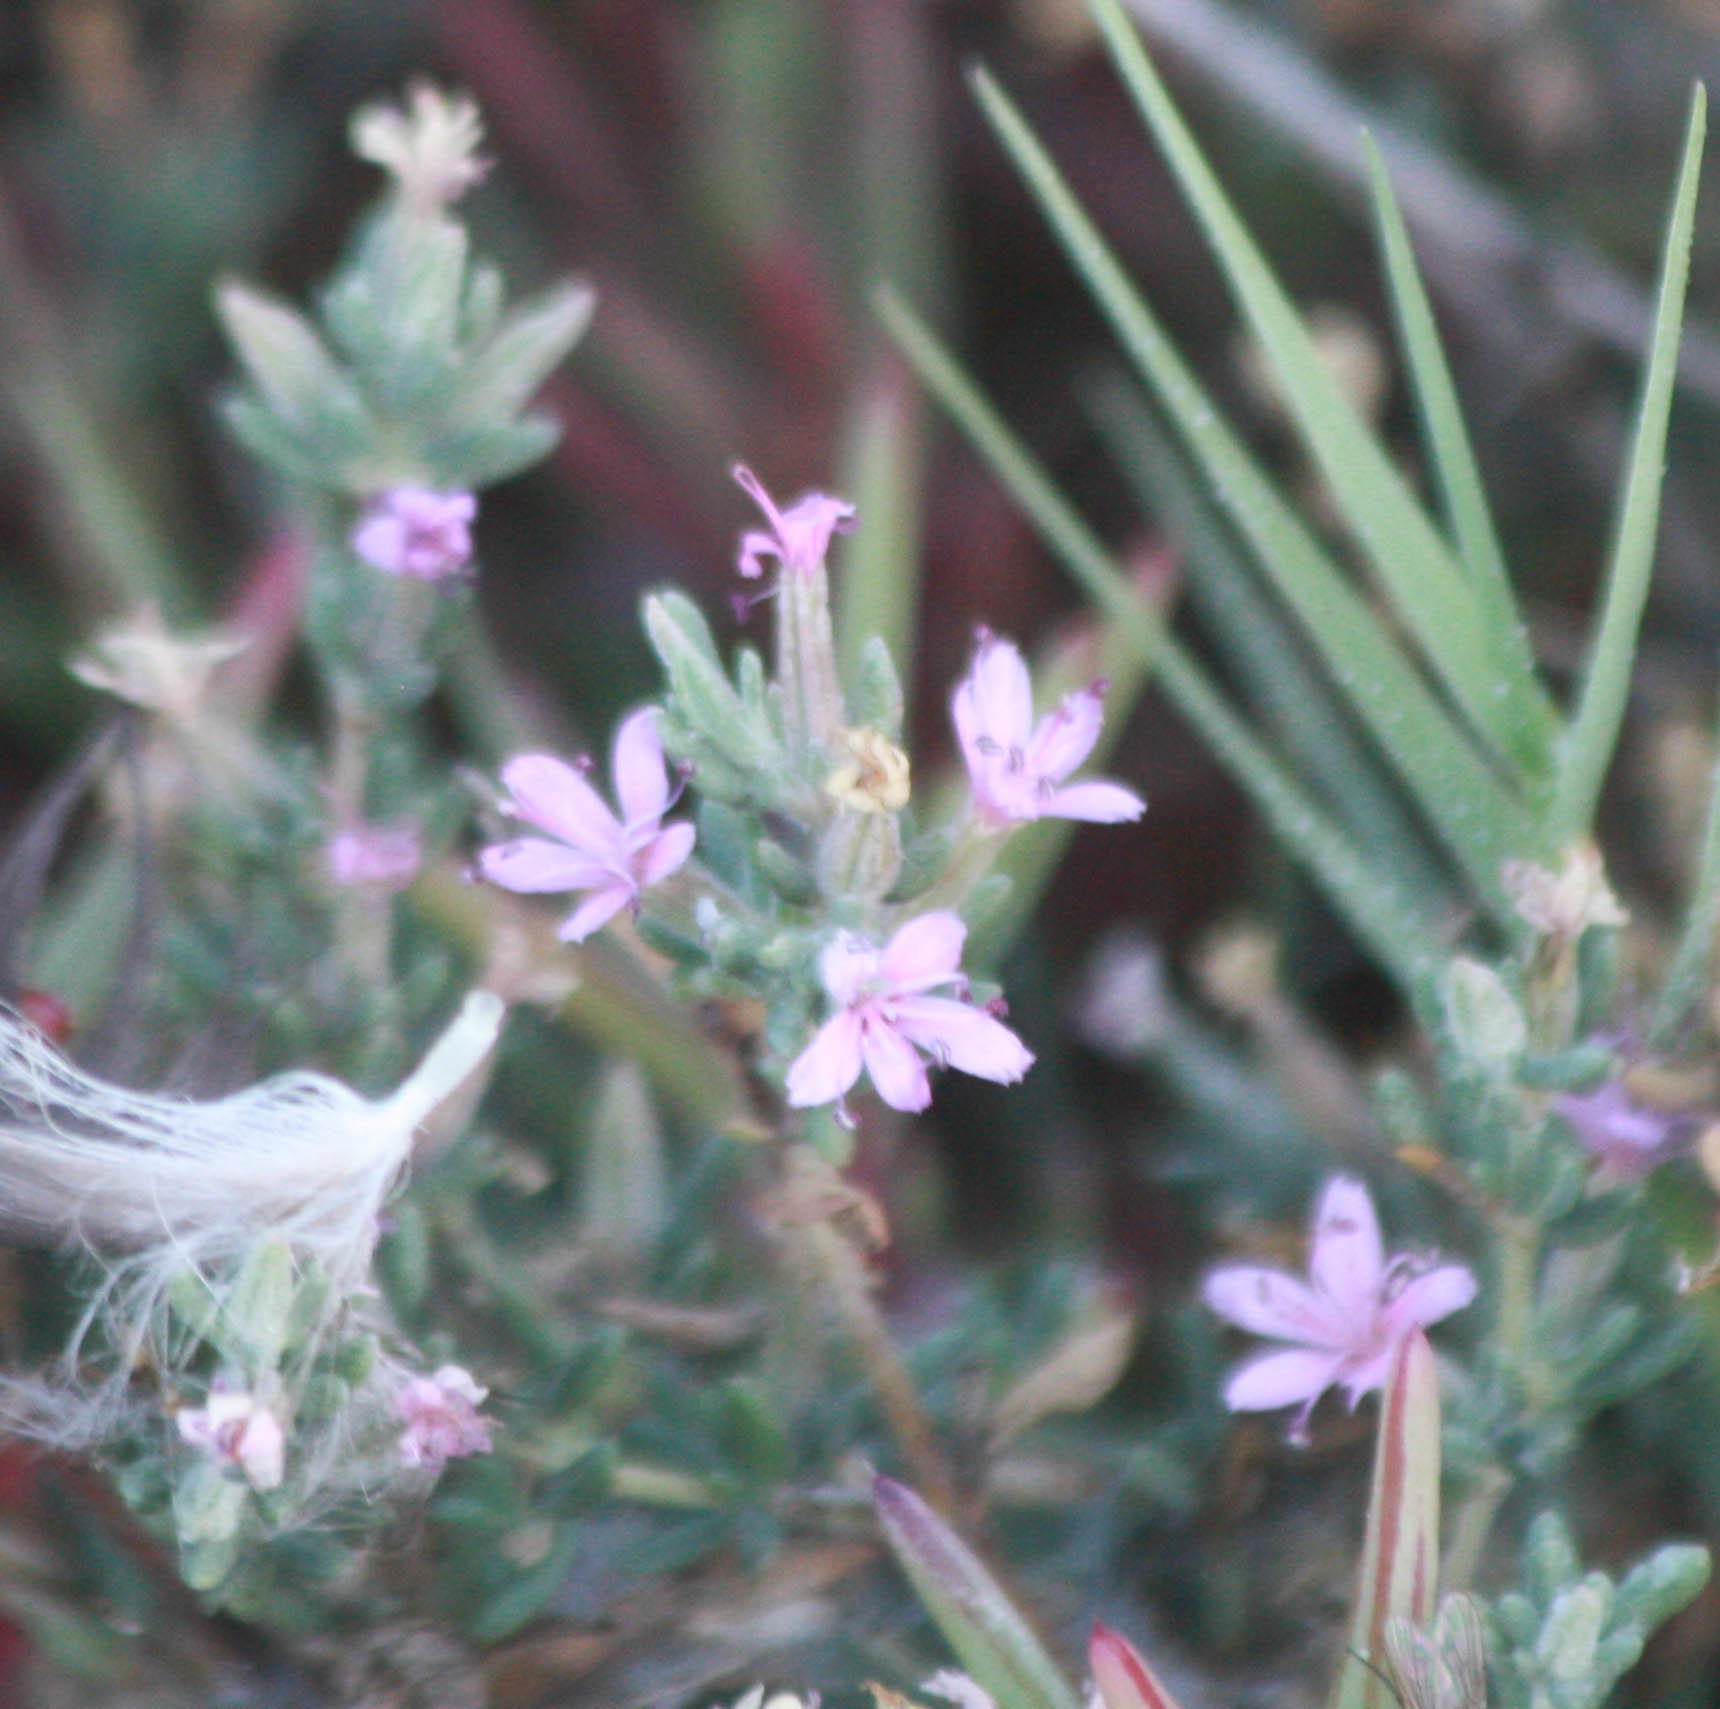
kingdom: Plantae
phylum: Tracheophyta
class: Magnoliopsida
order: Caryophyllales
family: Frankeniaceae
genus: Frankenia
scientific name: Frankenia salina
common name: Alkali seaheath
